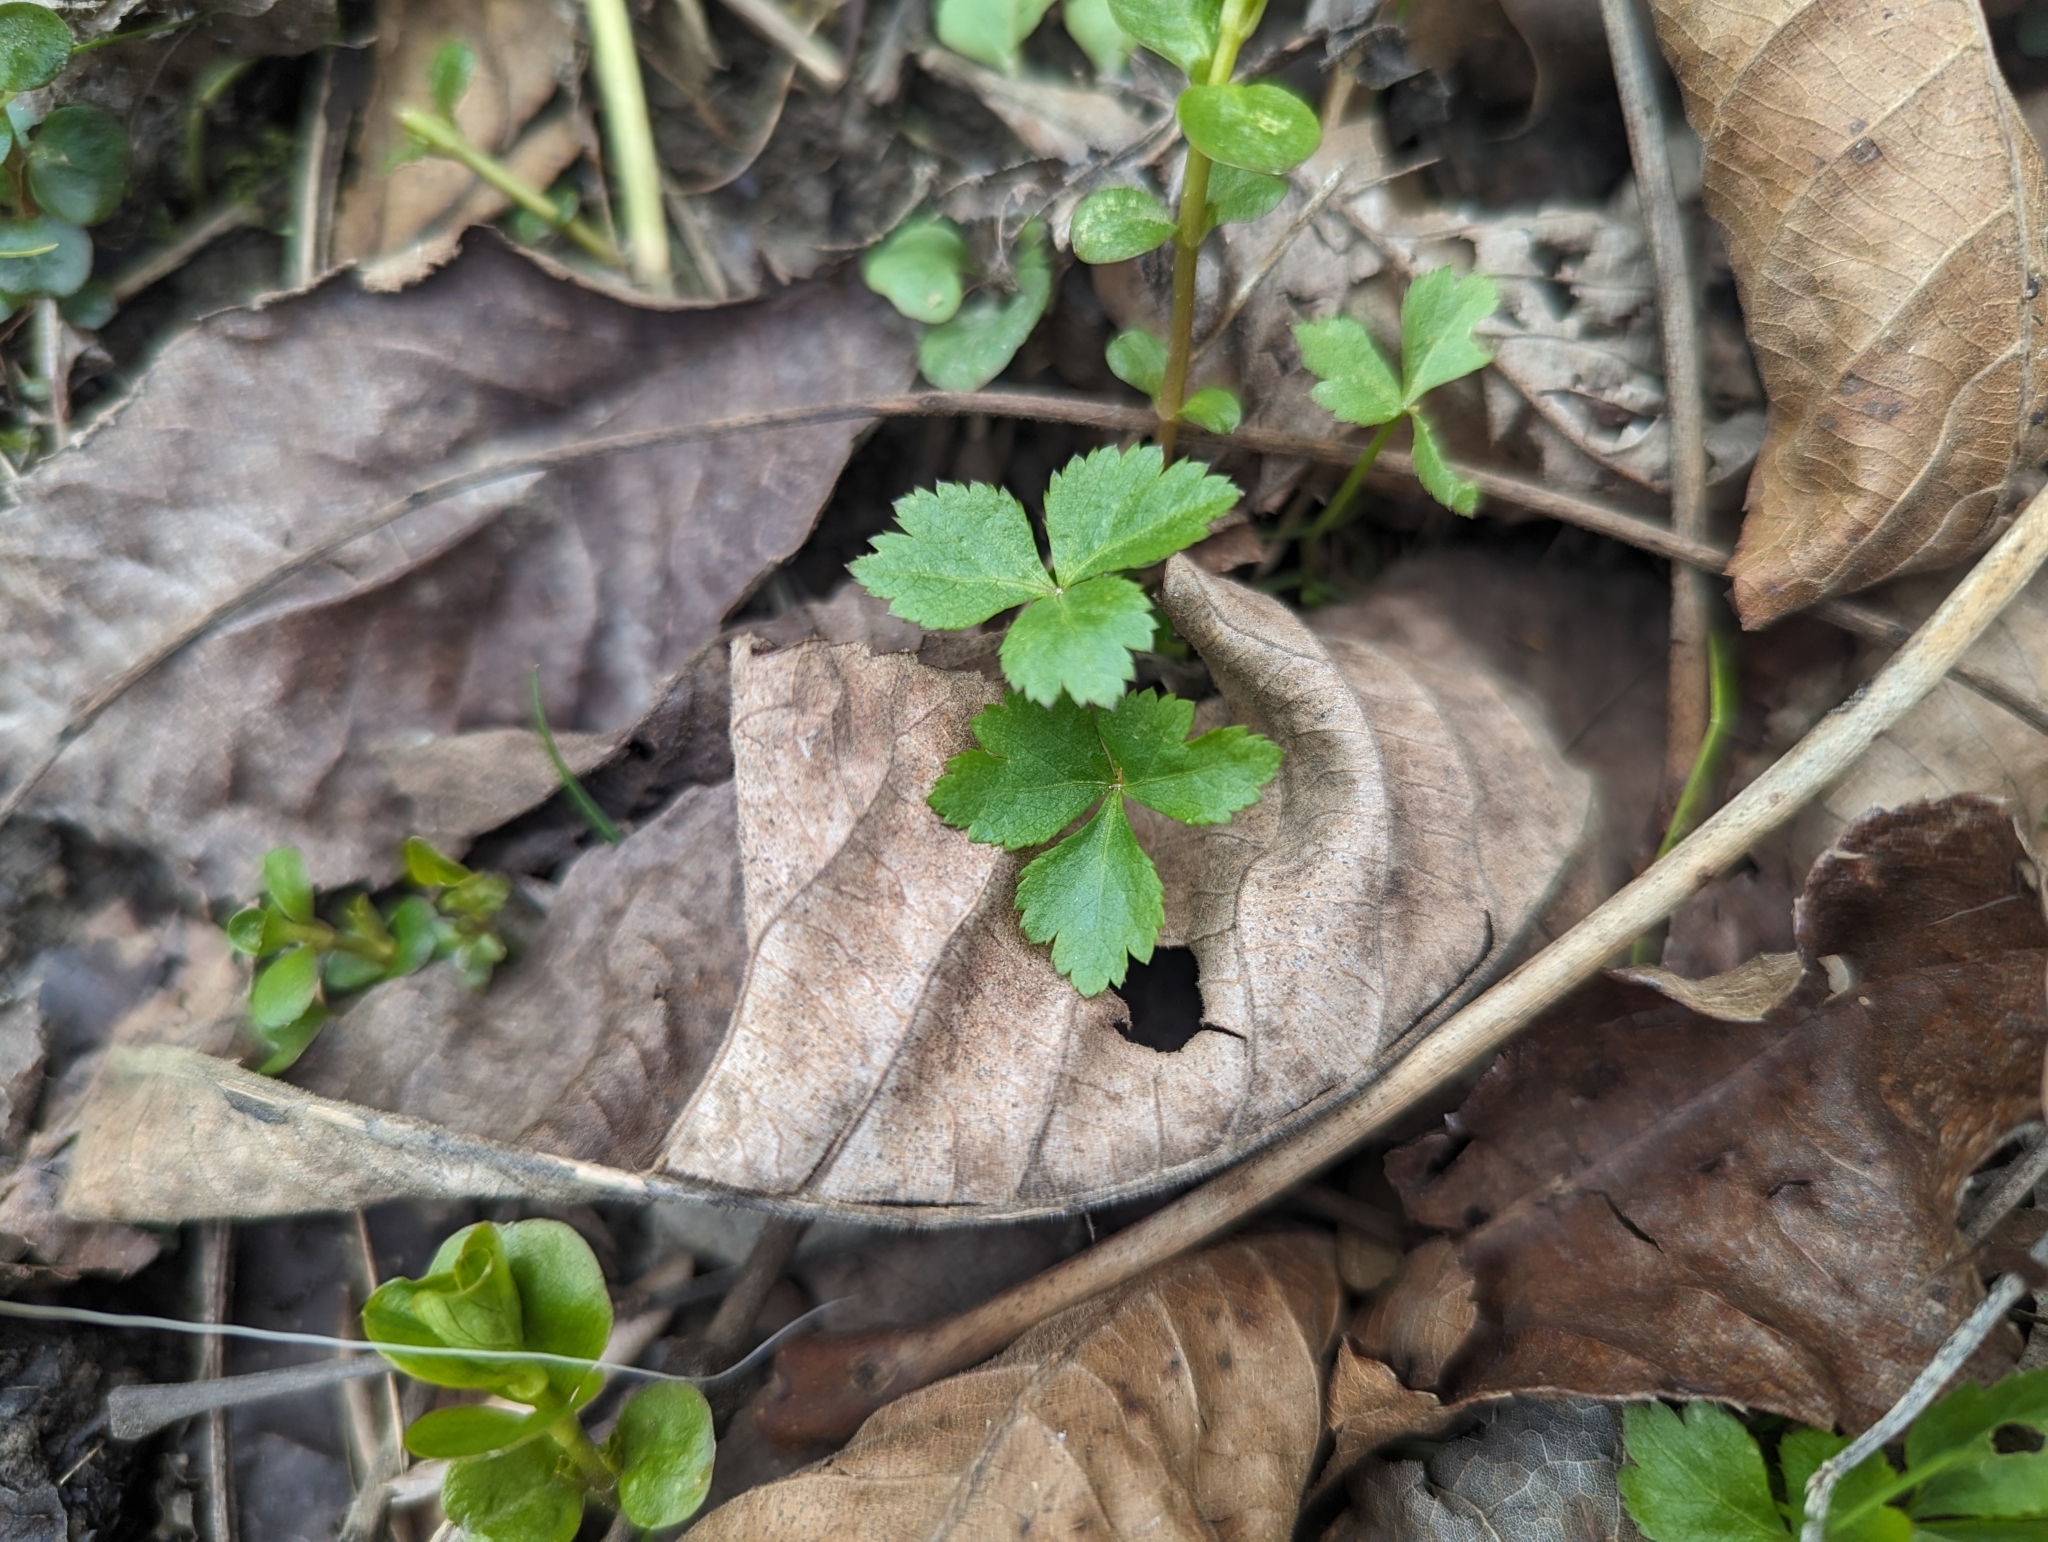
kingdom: Plantae
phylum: Tracheophyta
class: Magnoliopsida
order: Apiales
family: Apiaceae
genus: Cryptotaenia
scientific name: Cryptotaenia canadensis
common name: Honewort
